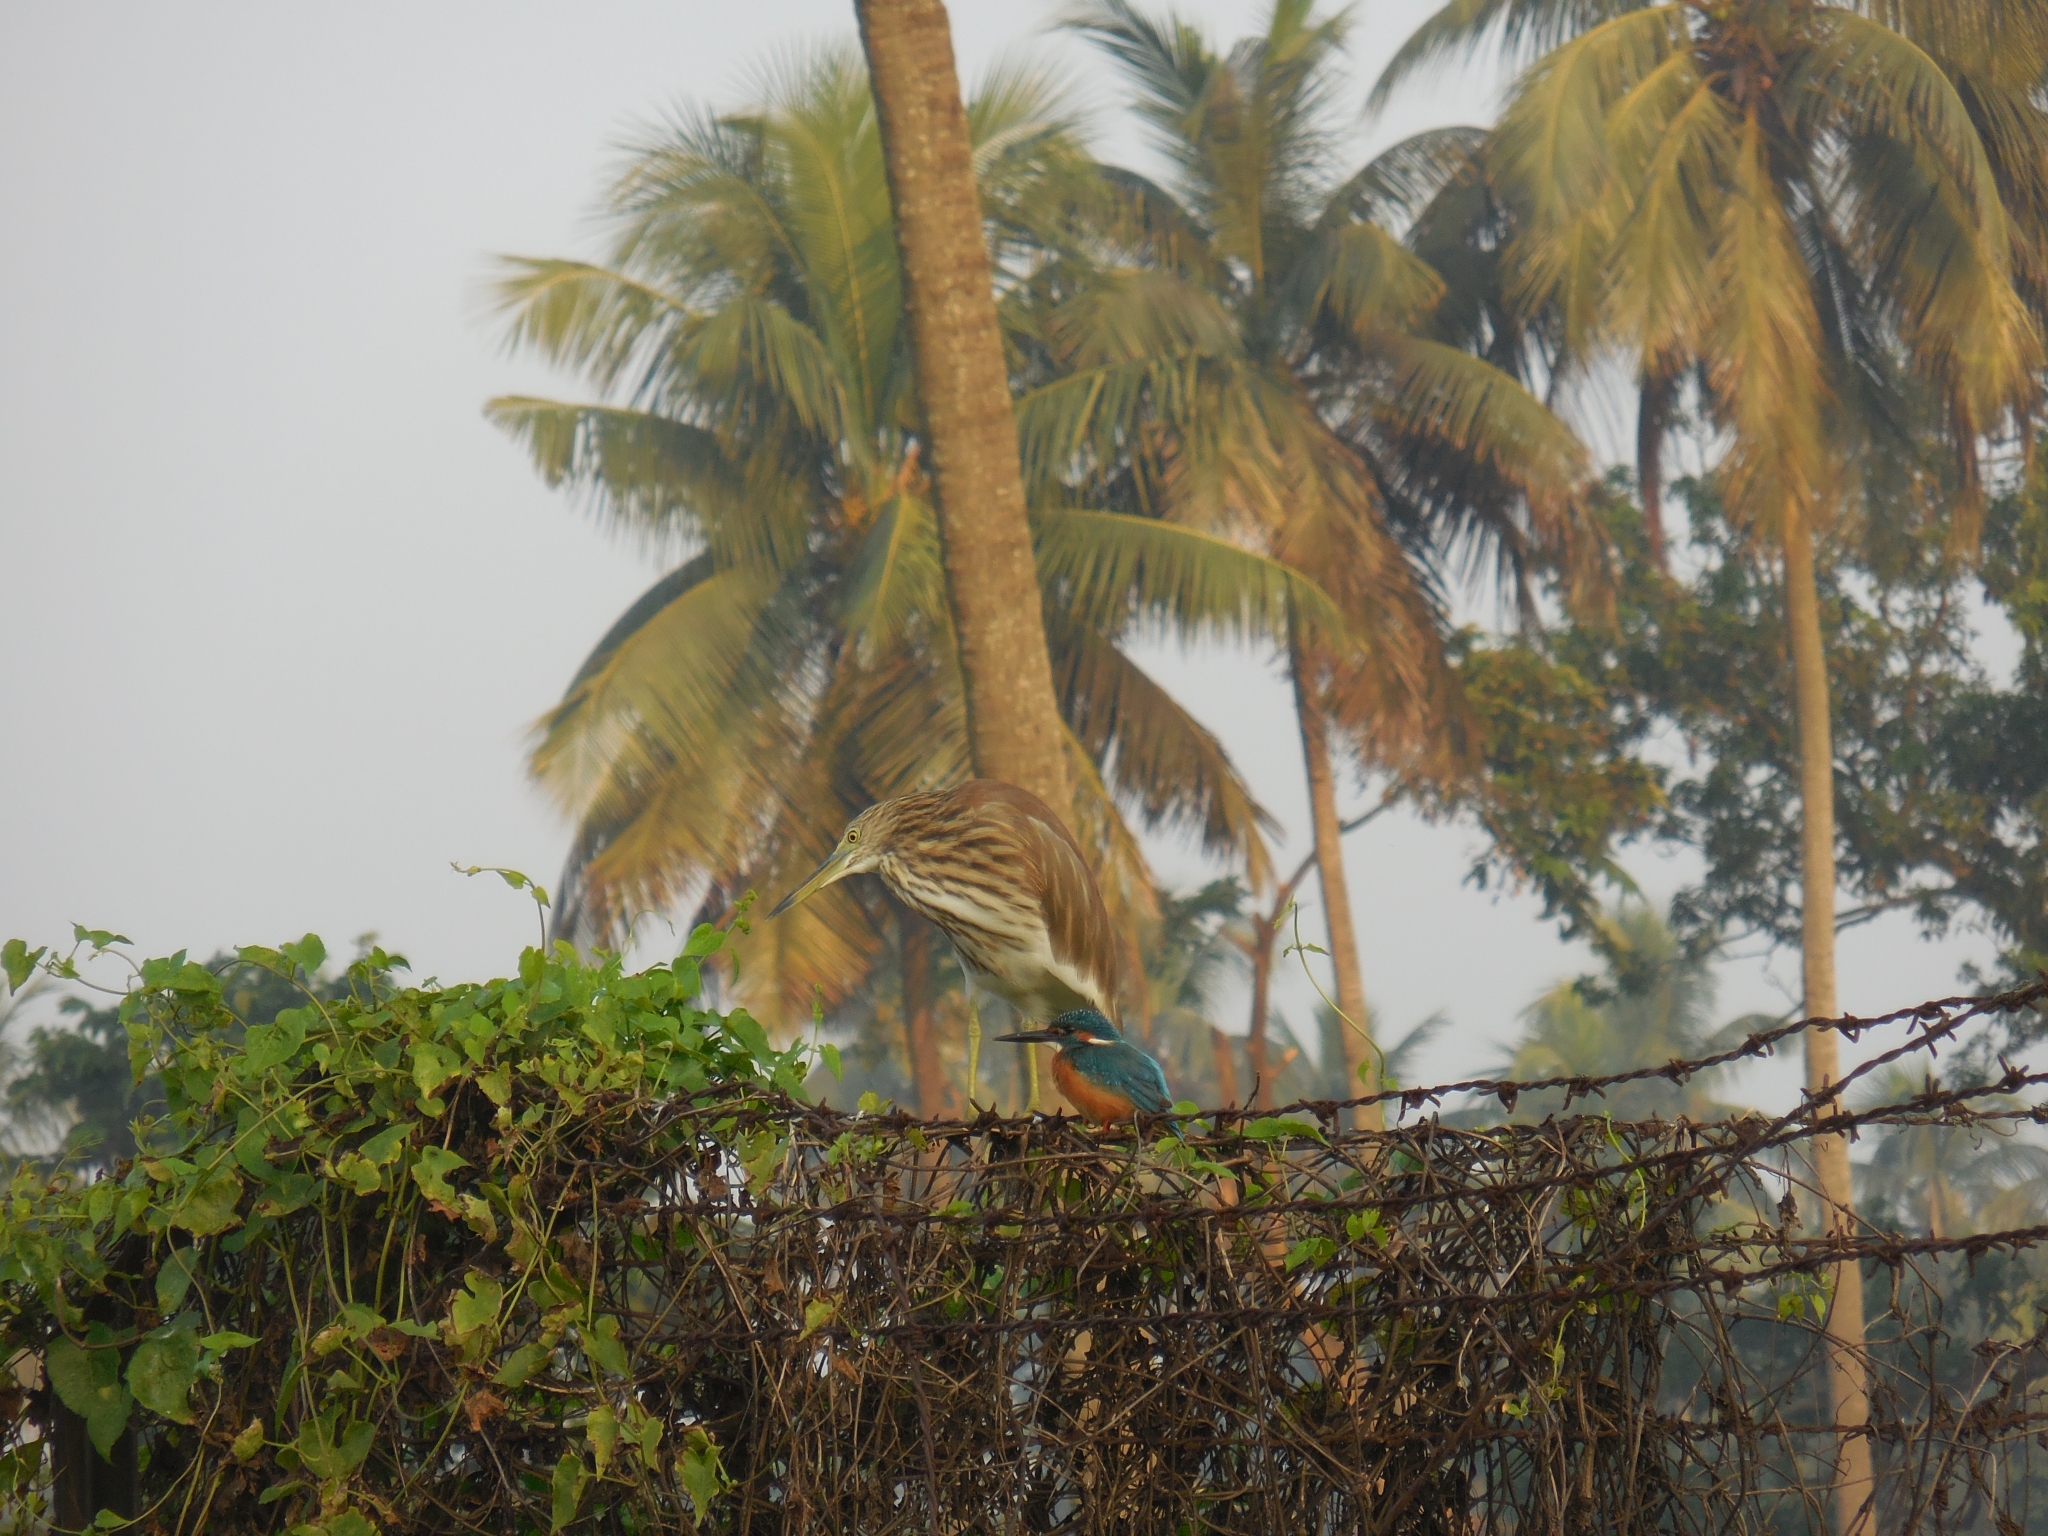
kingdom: Animalia
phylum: Chordata
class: Aves
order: Coraciiformes
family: Alcedinidae
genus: Alcedo
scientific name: Alcedo atthis
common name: Common kingfisher
